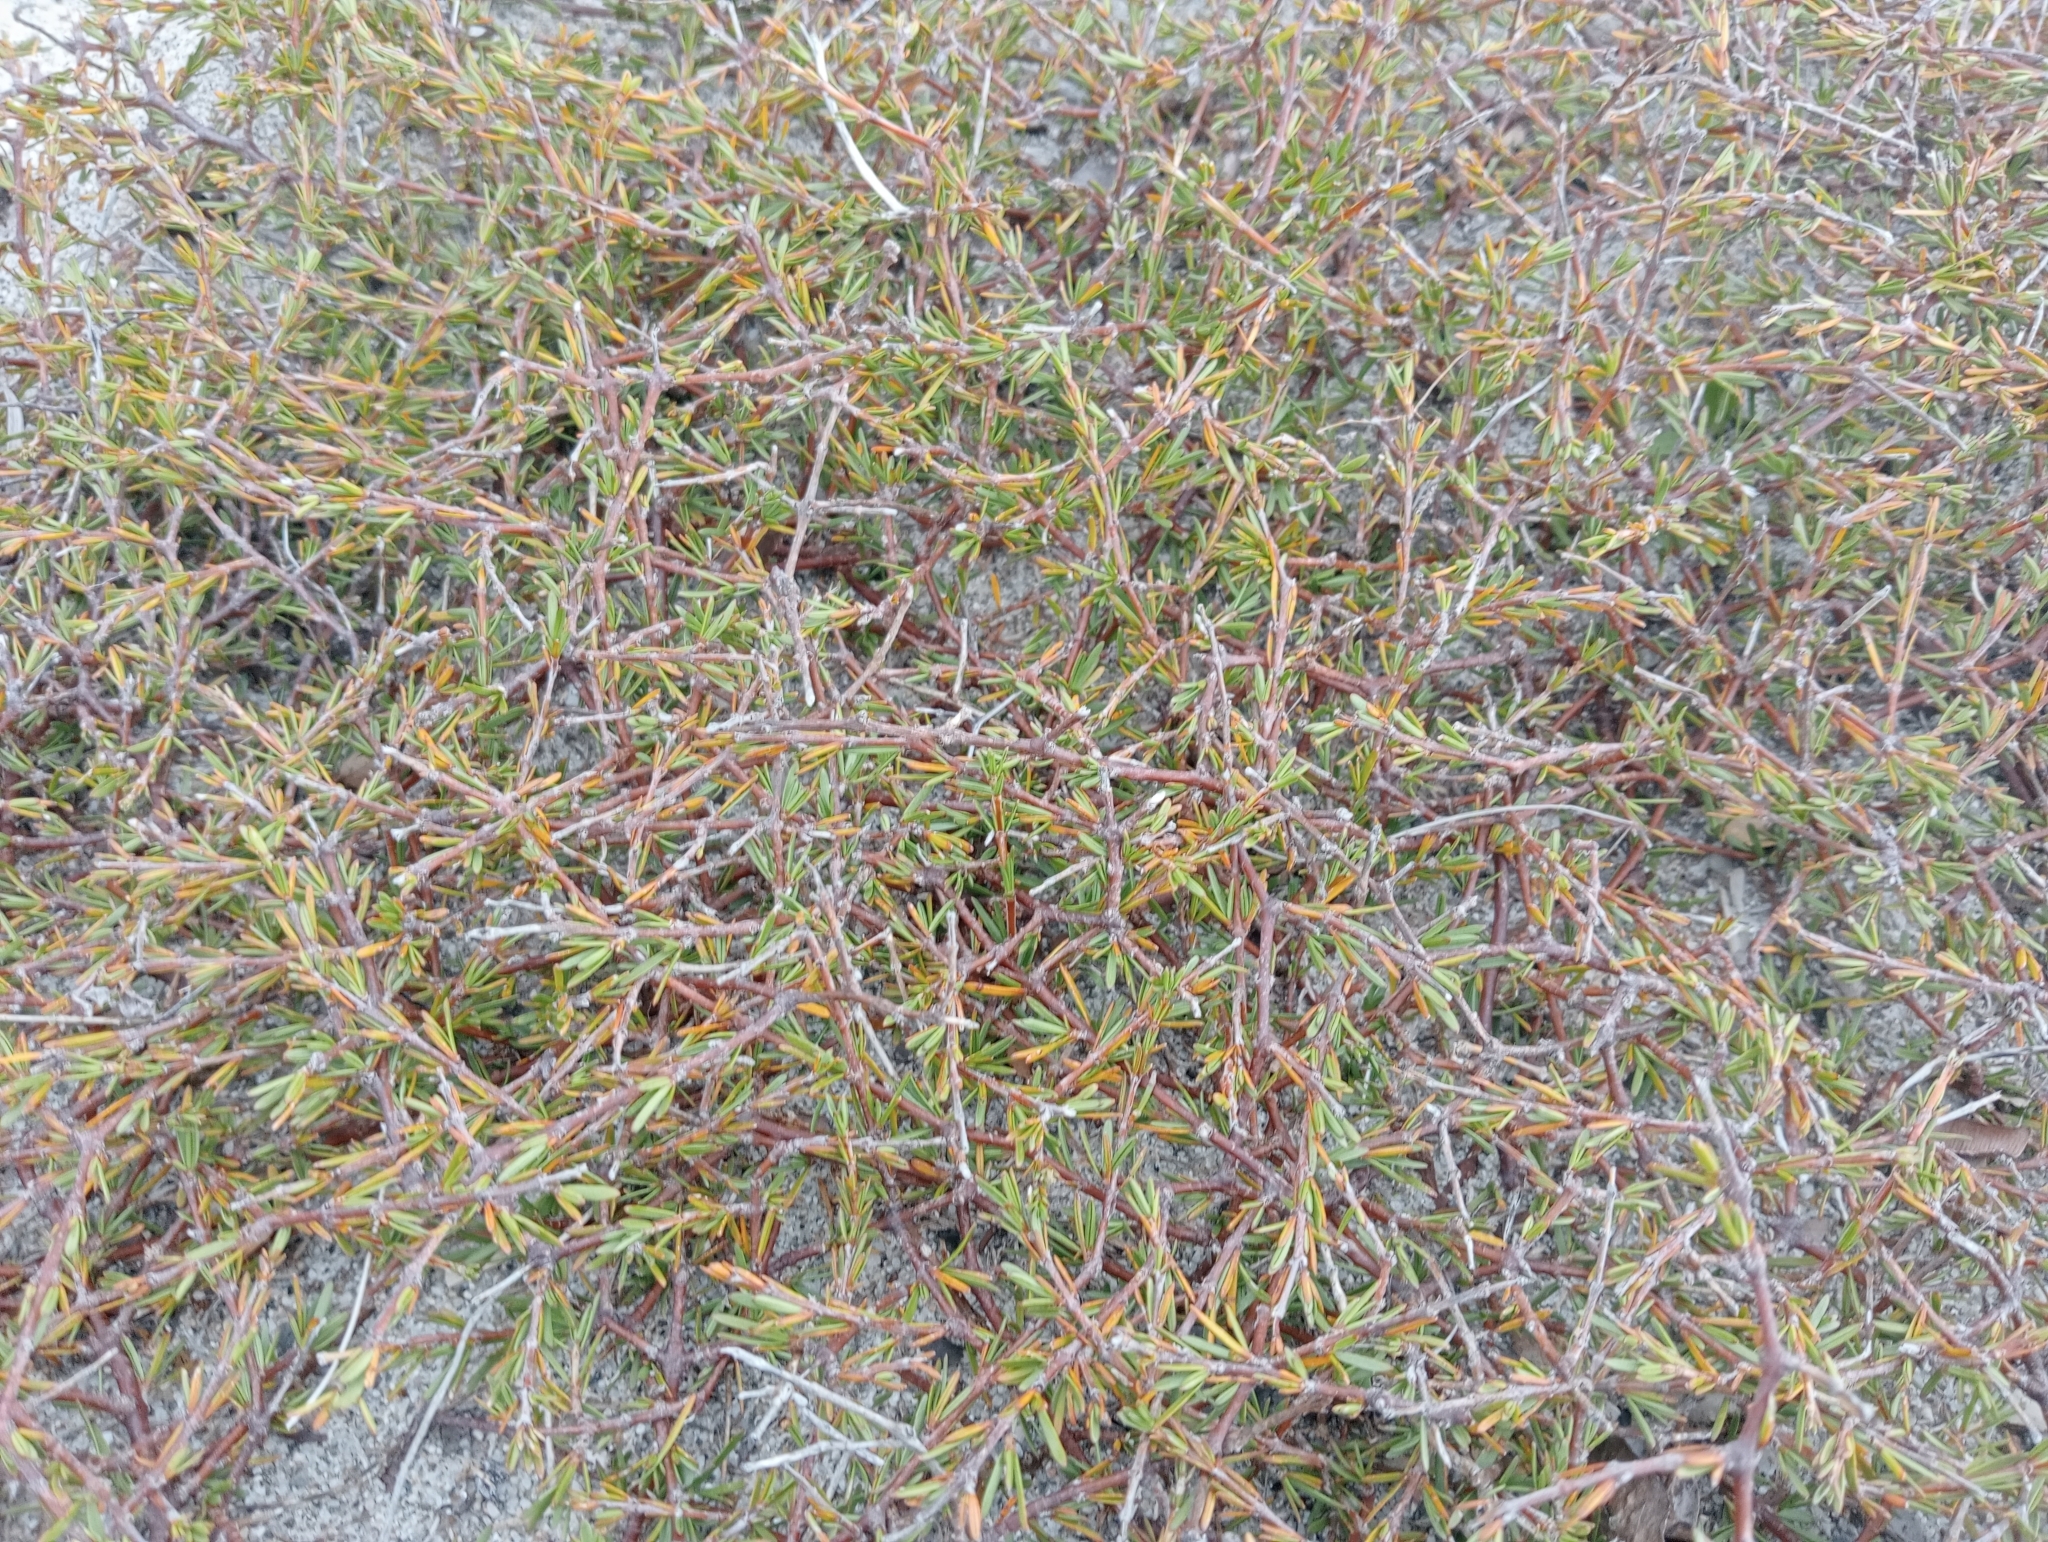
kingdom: Plantae
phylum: Tracheophyta
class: Magnoliopsida
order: Gentianales
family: Rubiaceae
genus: Coprosma
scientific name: Coprosma acerosa
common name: Sand coprosma
